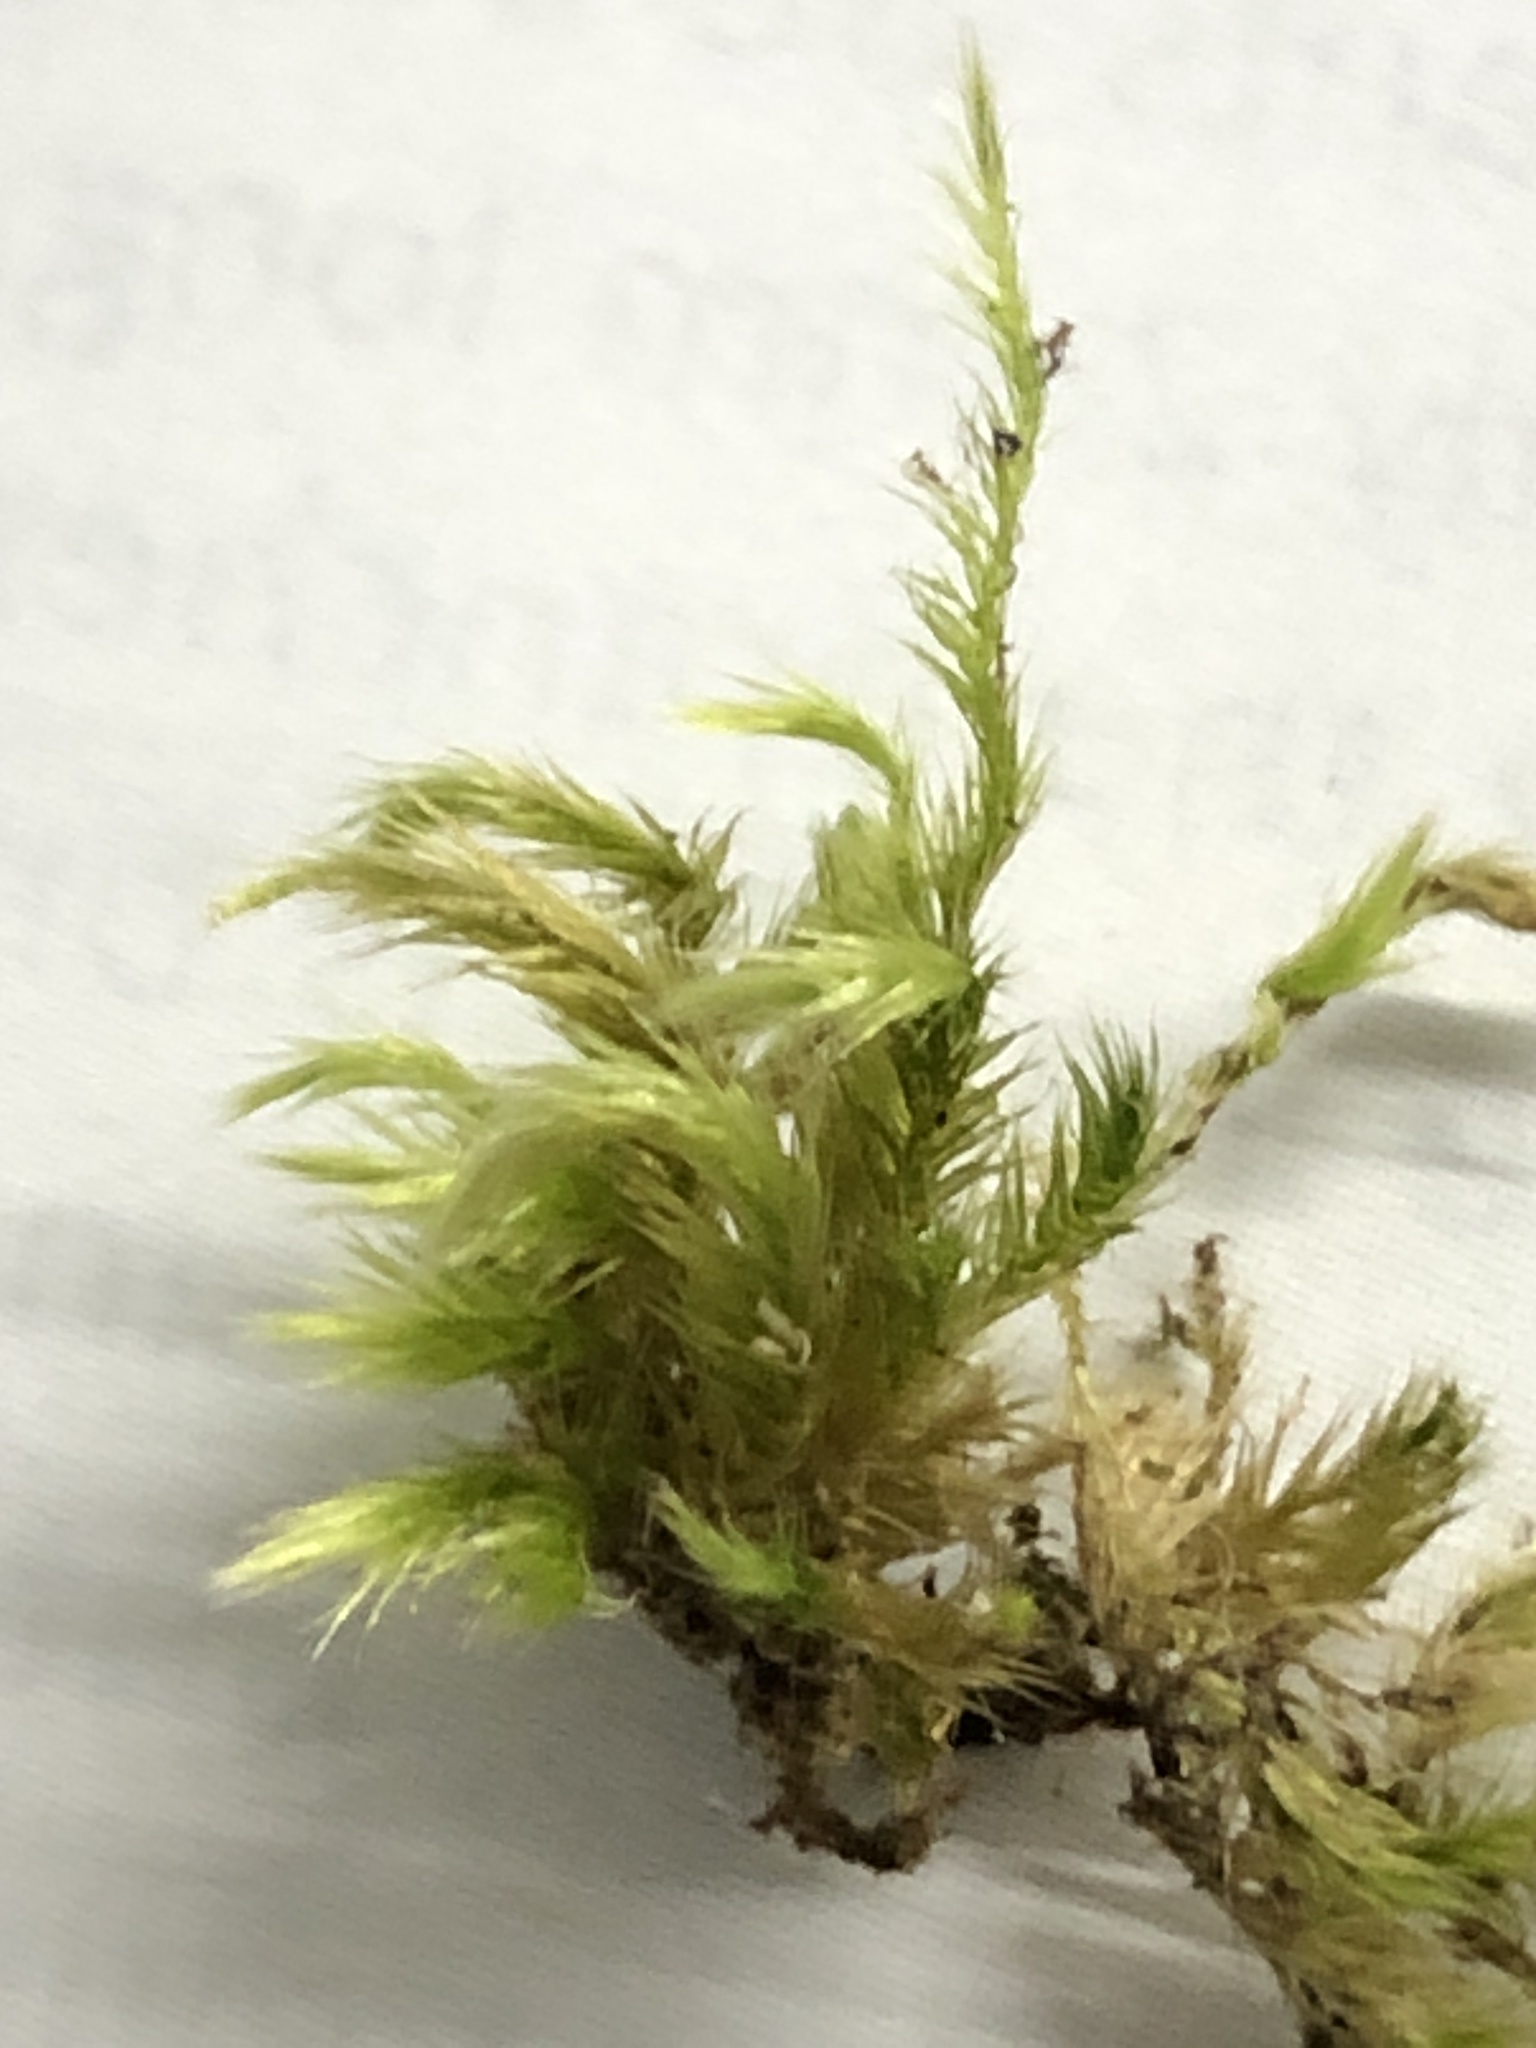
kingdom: Plantae
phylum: Bryophyta
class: Bryopsida
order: Hypnales
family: Brachytheciaceae
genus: Homalothecium
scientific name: Homalothecium sericeum
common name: Silky wall feather-moss
